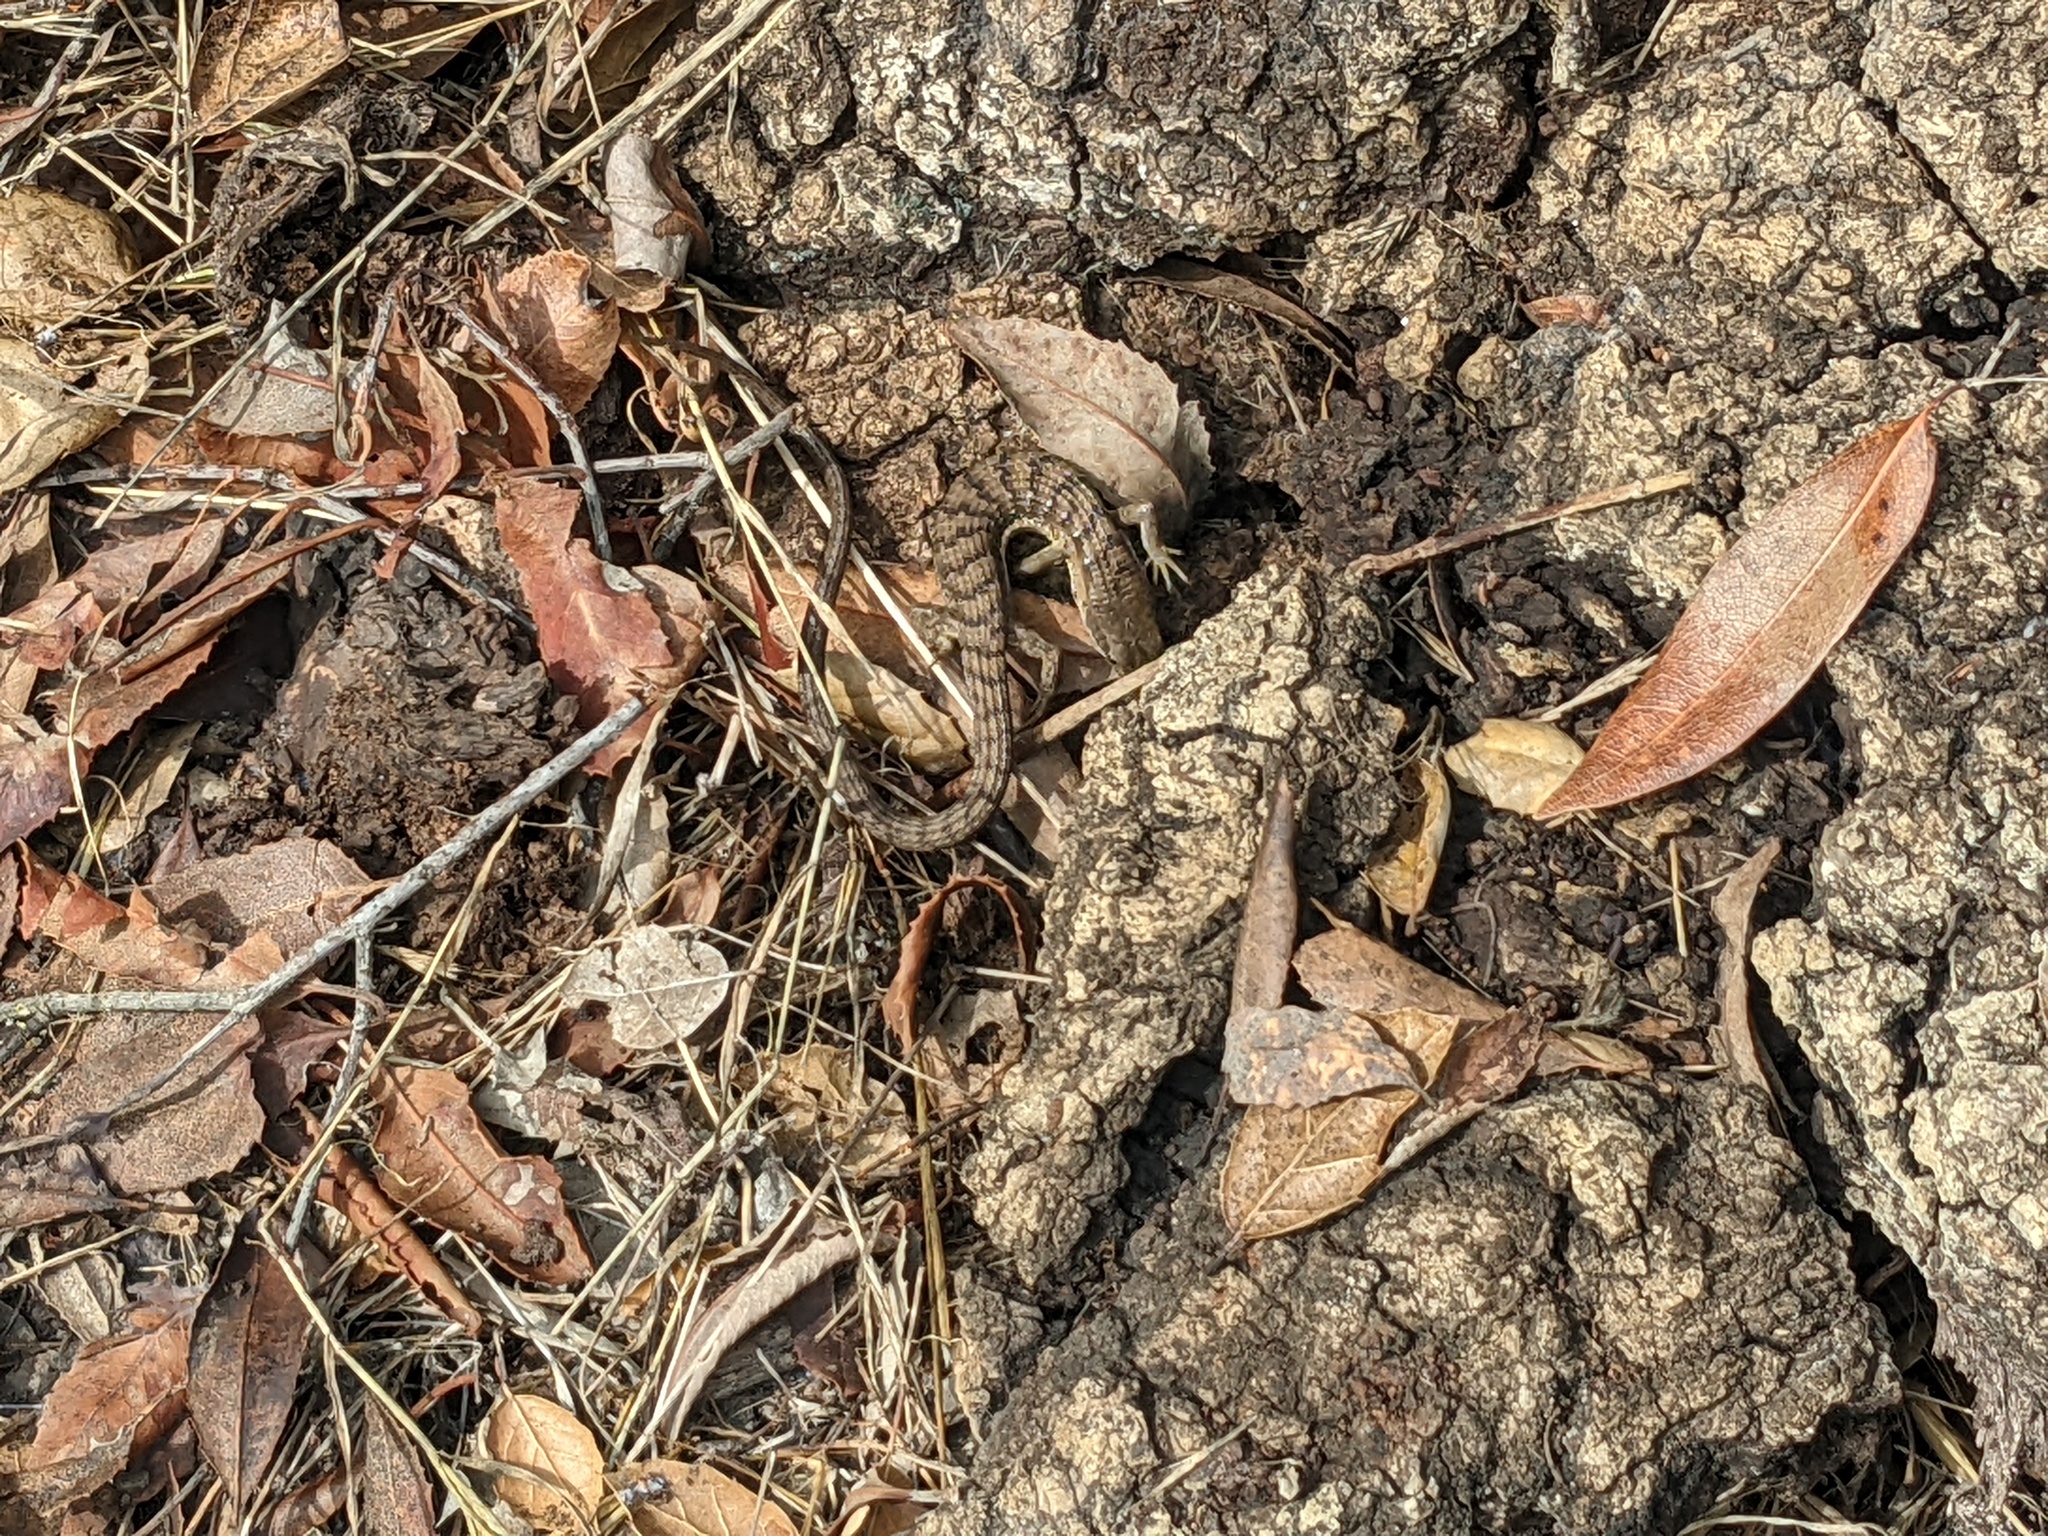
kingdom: Animalia
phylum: Chordata
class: Squamata
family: Anguidae
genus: Elgaria
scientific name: Elgaria multicarinata
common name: Southern alligator lizard
